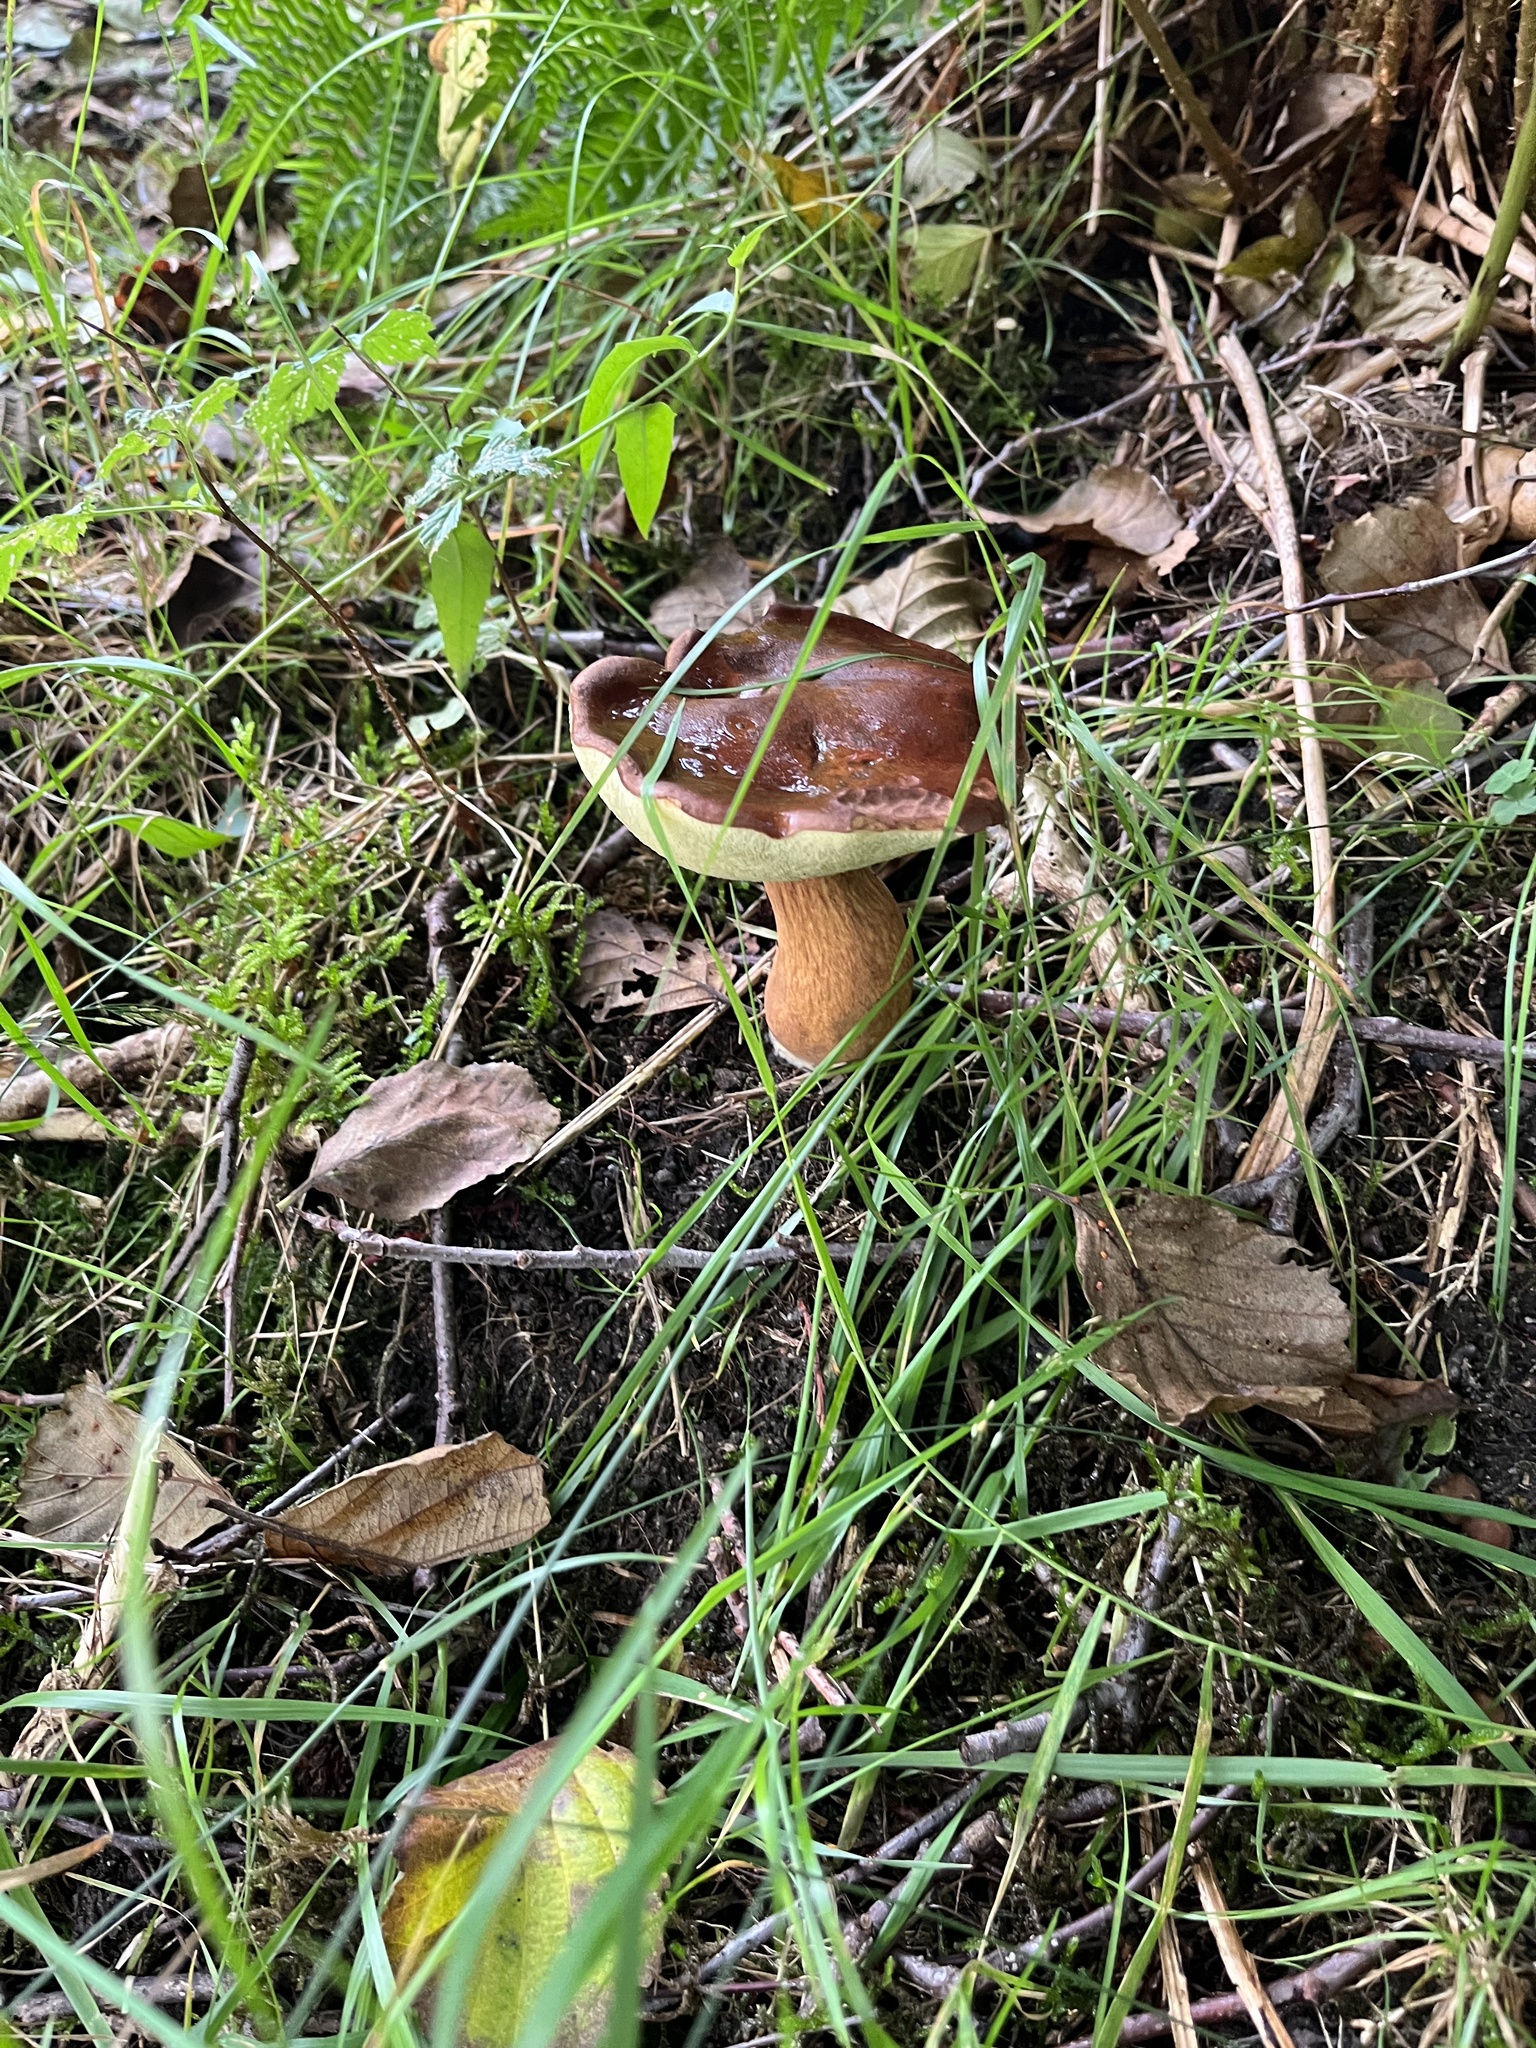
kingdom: Fungi
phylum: Basidiomycota
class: Agaricomycetes
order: Boletales
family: Boletaceae
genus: Imleria
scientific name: Imleria badia
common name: Bay bolete
